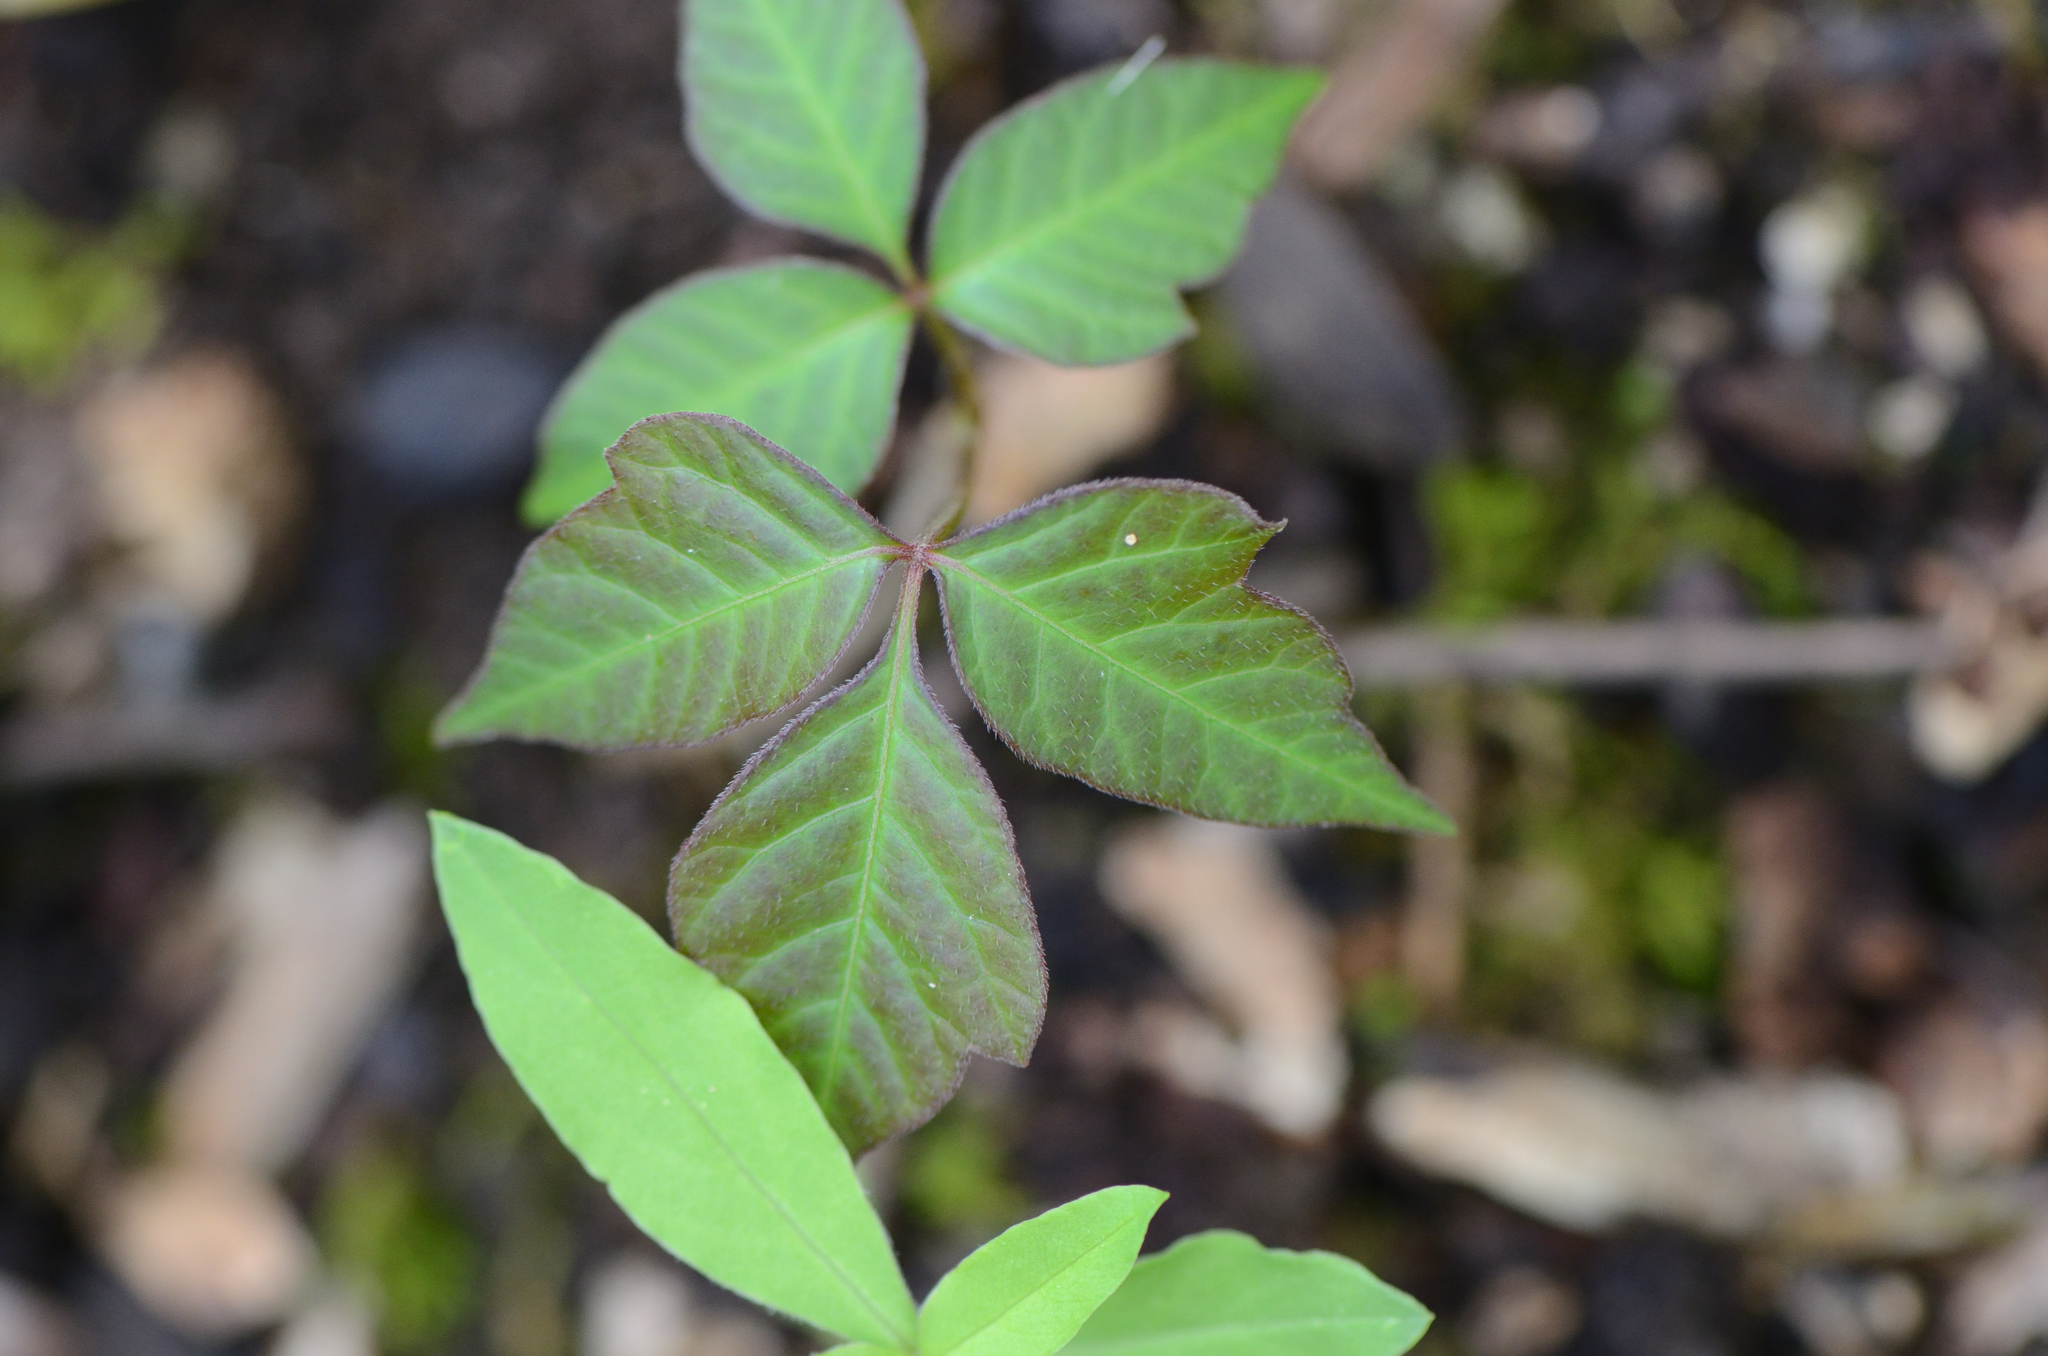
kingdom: Plantae
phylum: Tracheophyta
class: Magnoliopsida
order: Sapindales
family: Anacardiaceae
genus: Toxicodendron
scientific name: Toxicodendron radicans
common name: Poison ivy
